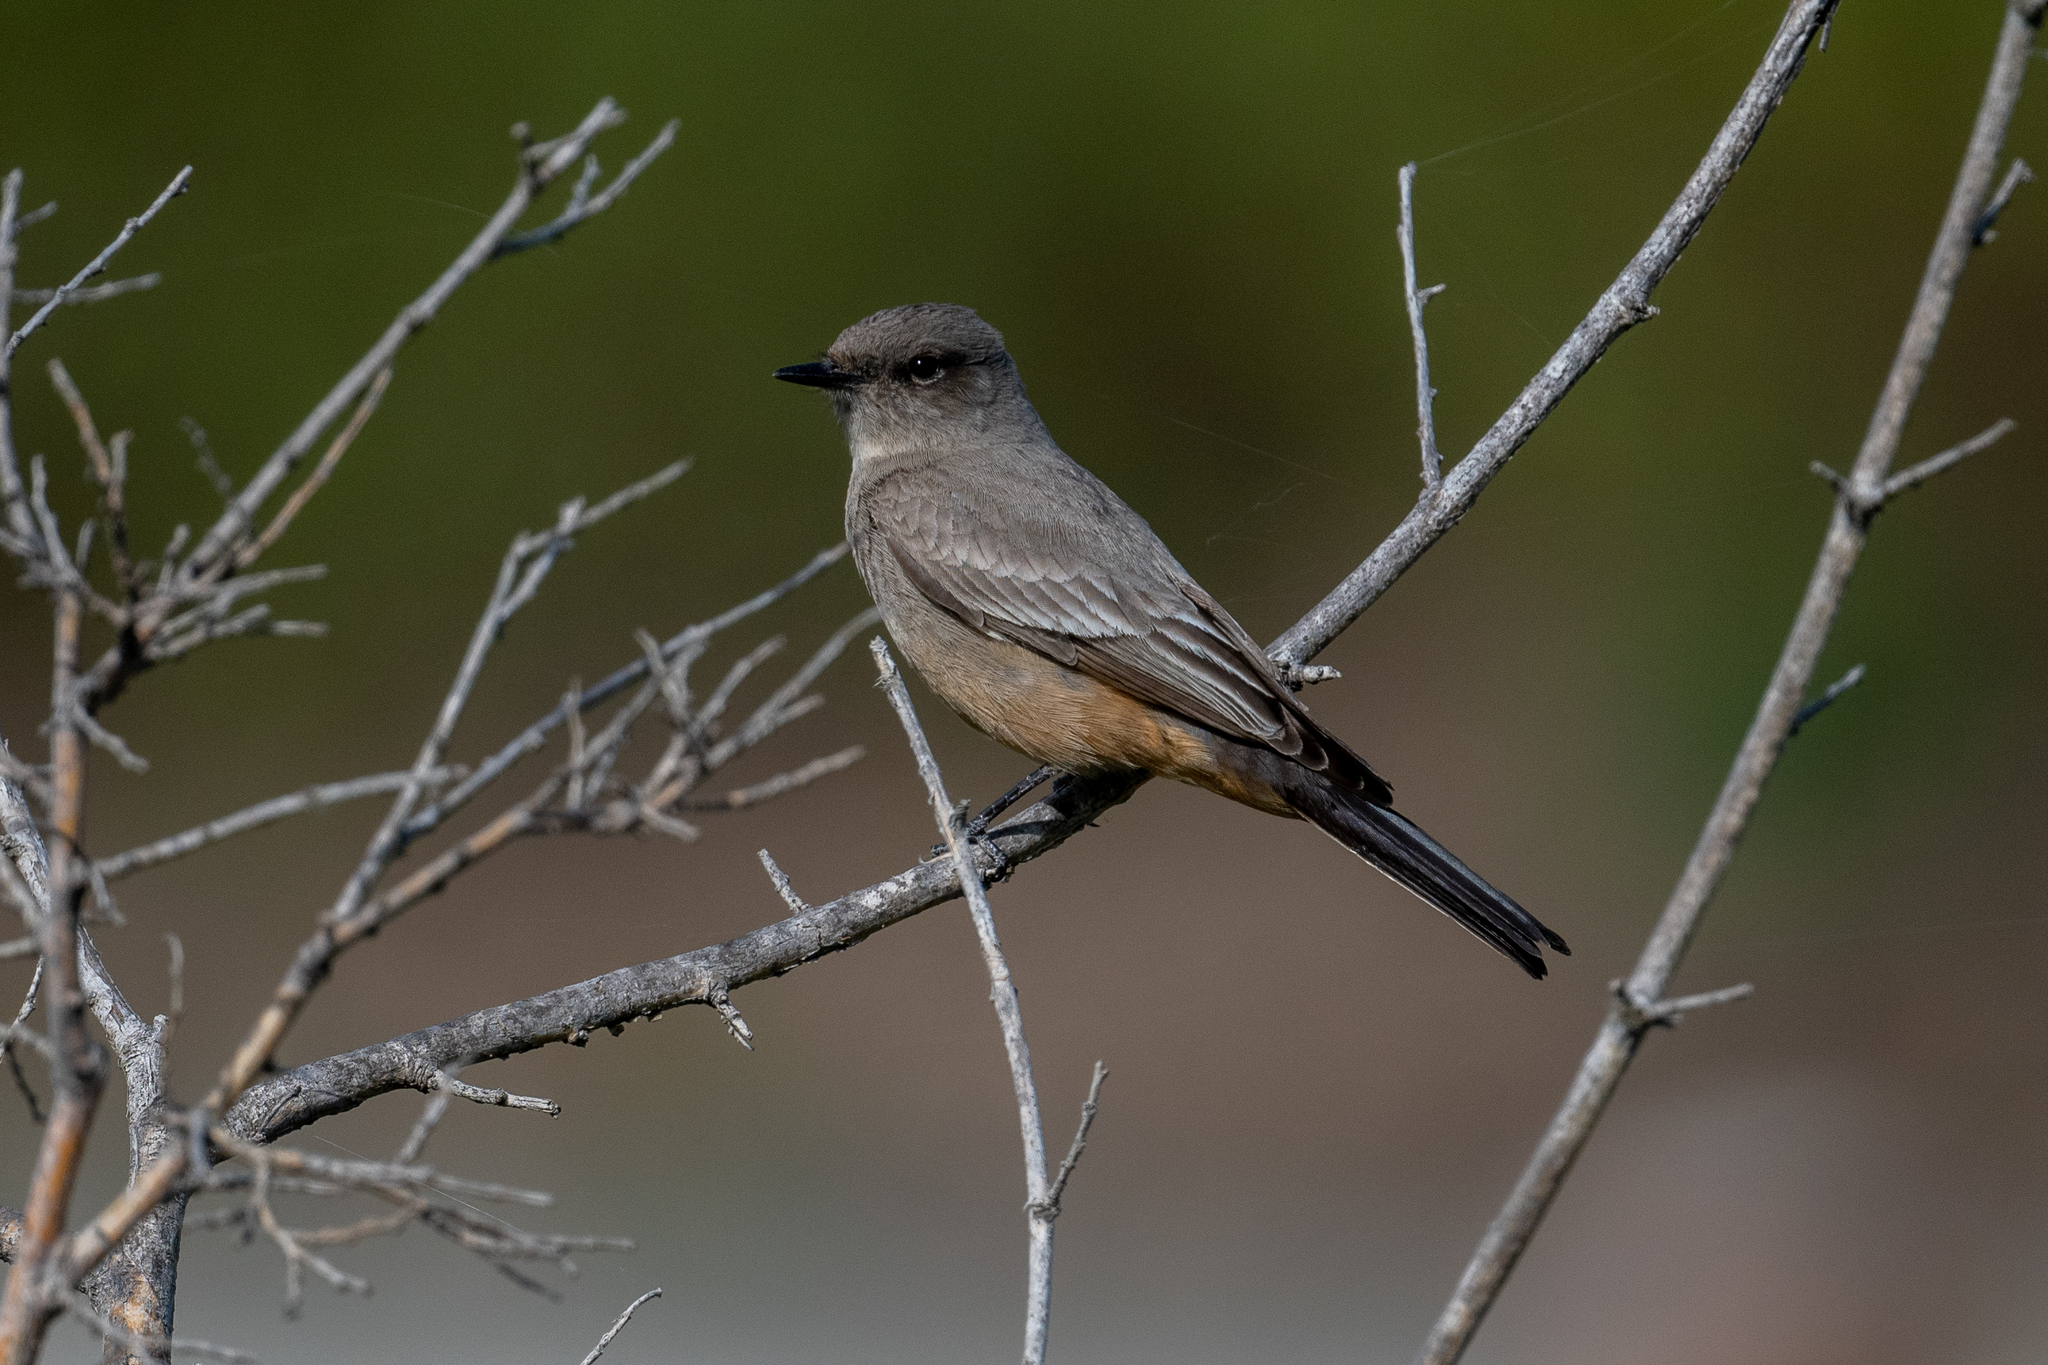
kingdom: Animalia
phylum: Chordata
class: Aves
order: Passeriformes
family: Tyrannidae
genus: Sayornis
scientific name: Sayornis saya
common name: Say's phoebe
